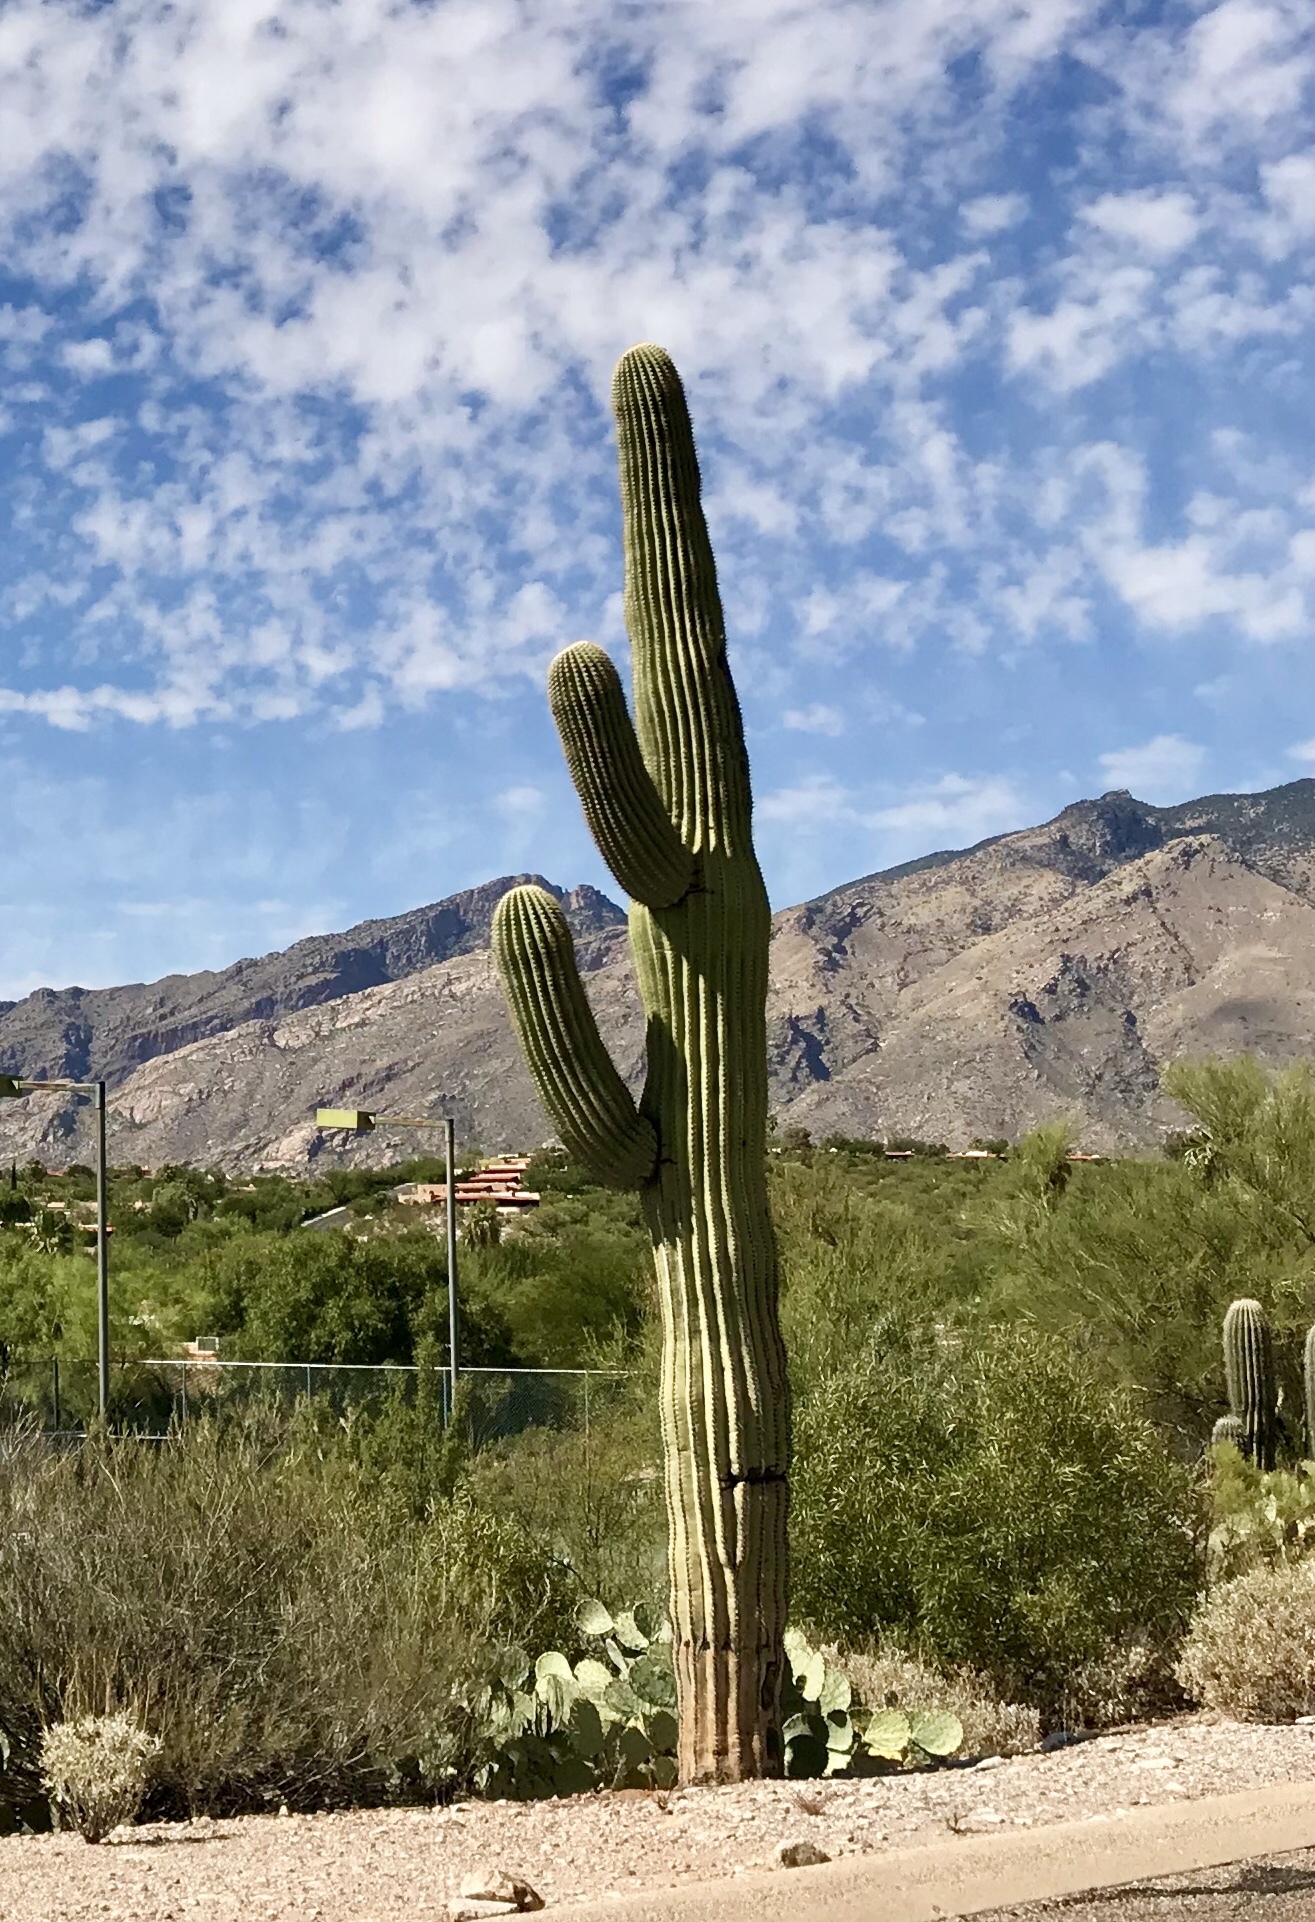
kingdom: Plantae
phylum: Tracheophyta
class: Magnoliopsida
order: Caryophyllales
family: Cactaceae
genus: Carnegiea
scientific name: Carnegiea gigantea
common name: Saguaro
